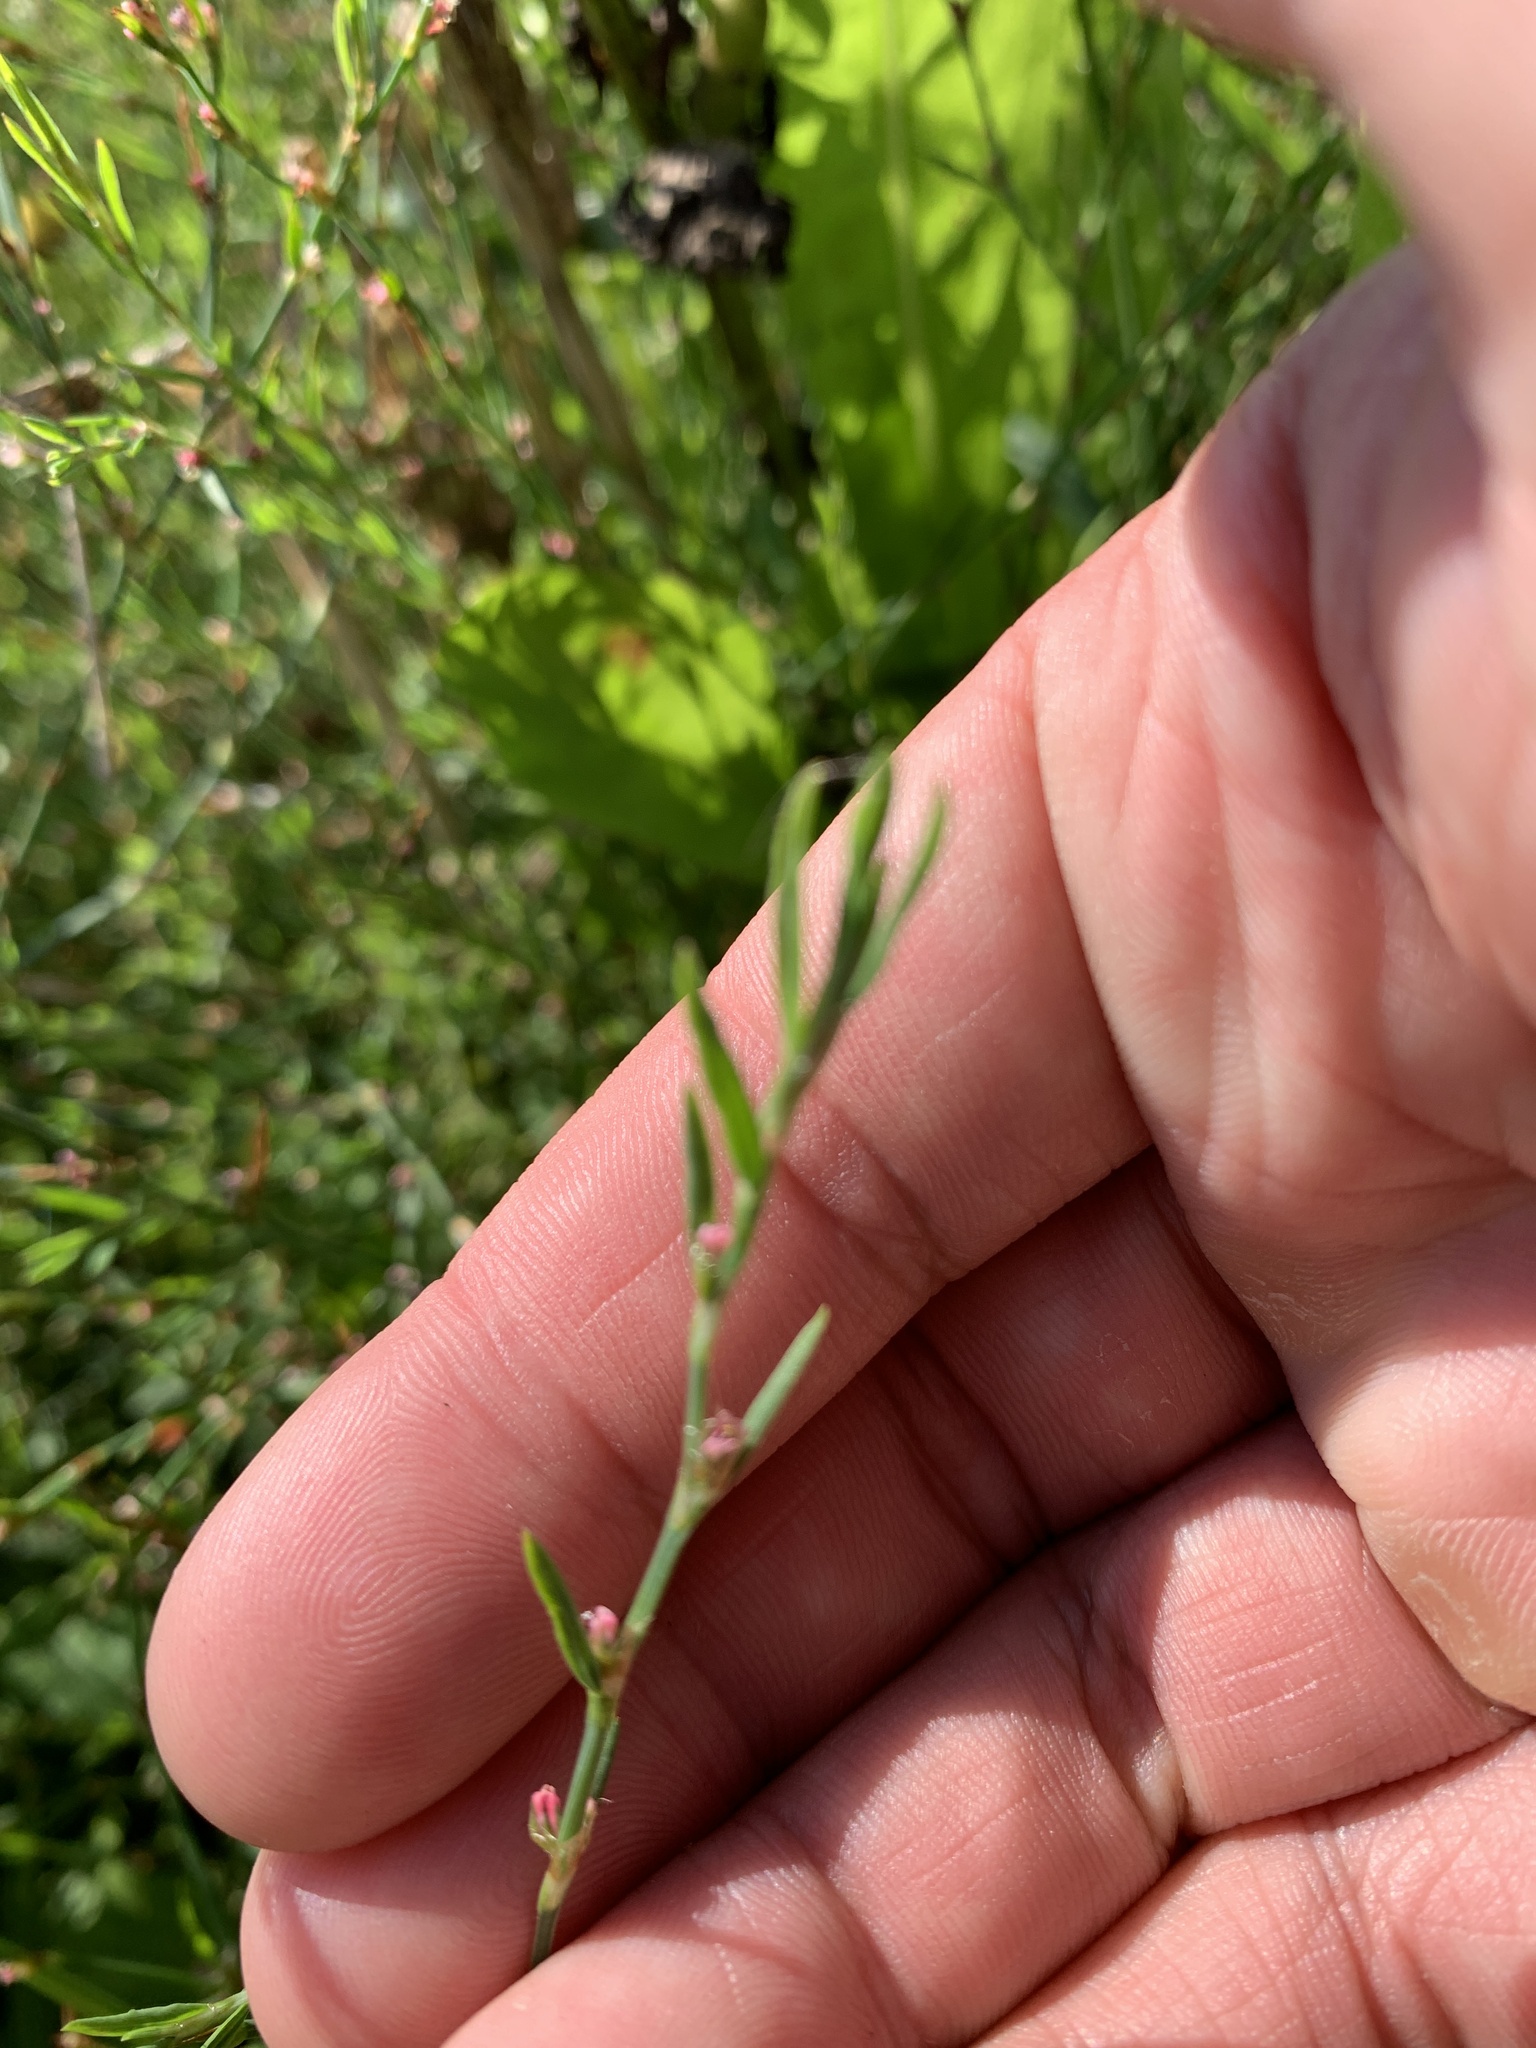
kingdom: Plantae
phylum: Tracheophyta
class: Magnoliopsida
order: Caryophyllales
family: Polygonaceae
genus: Polygonum
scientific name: Polygonum aviculare
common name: Prostrate knotweed
